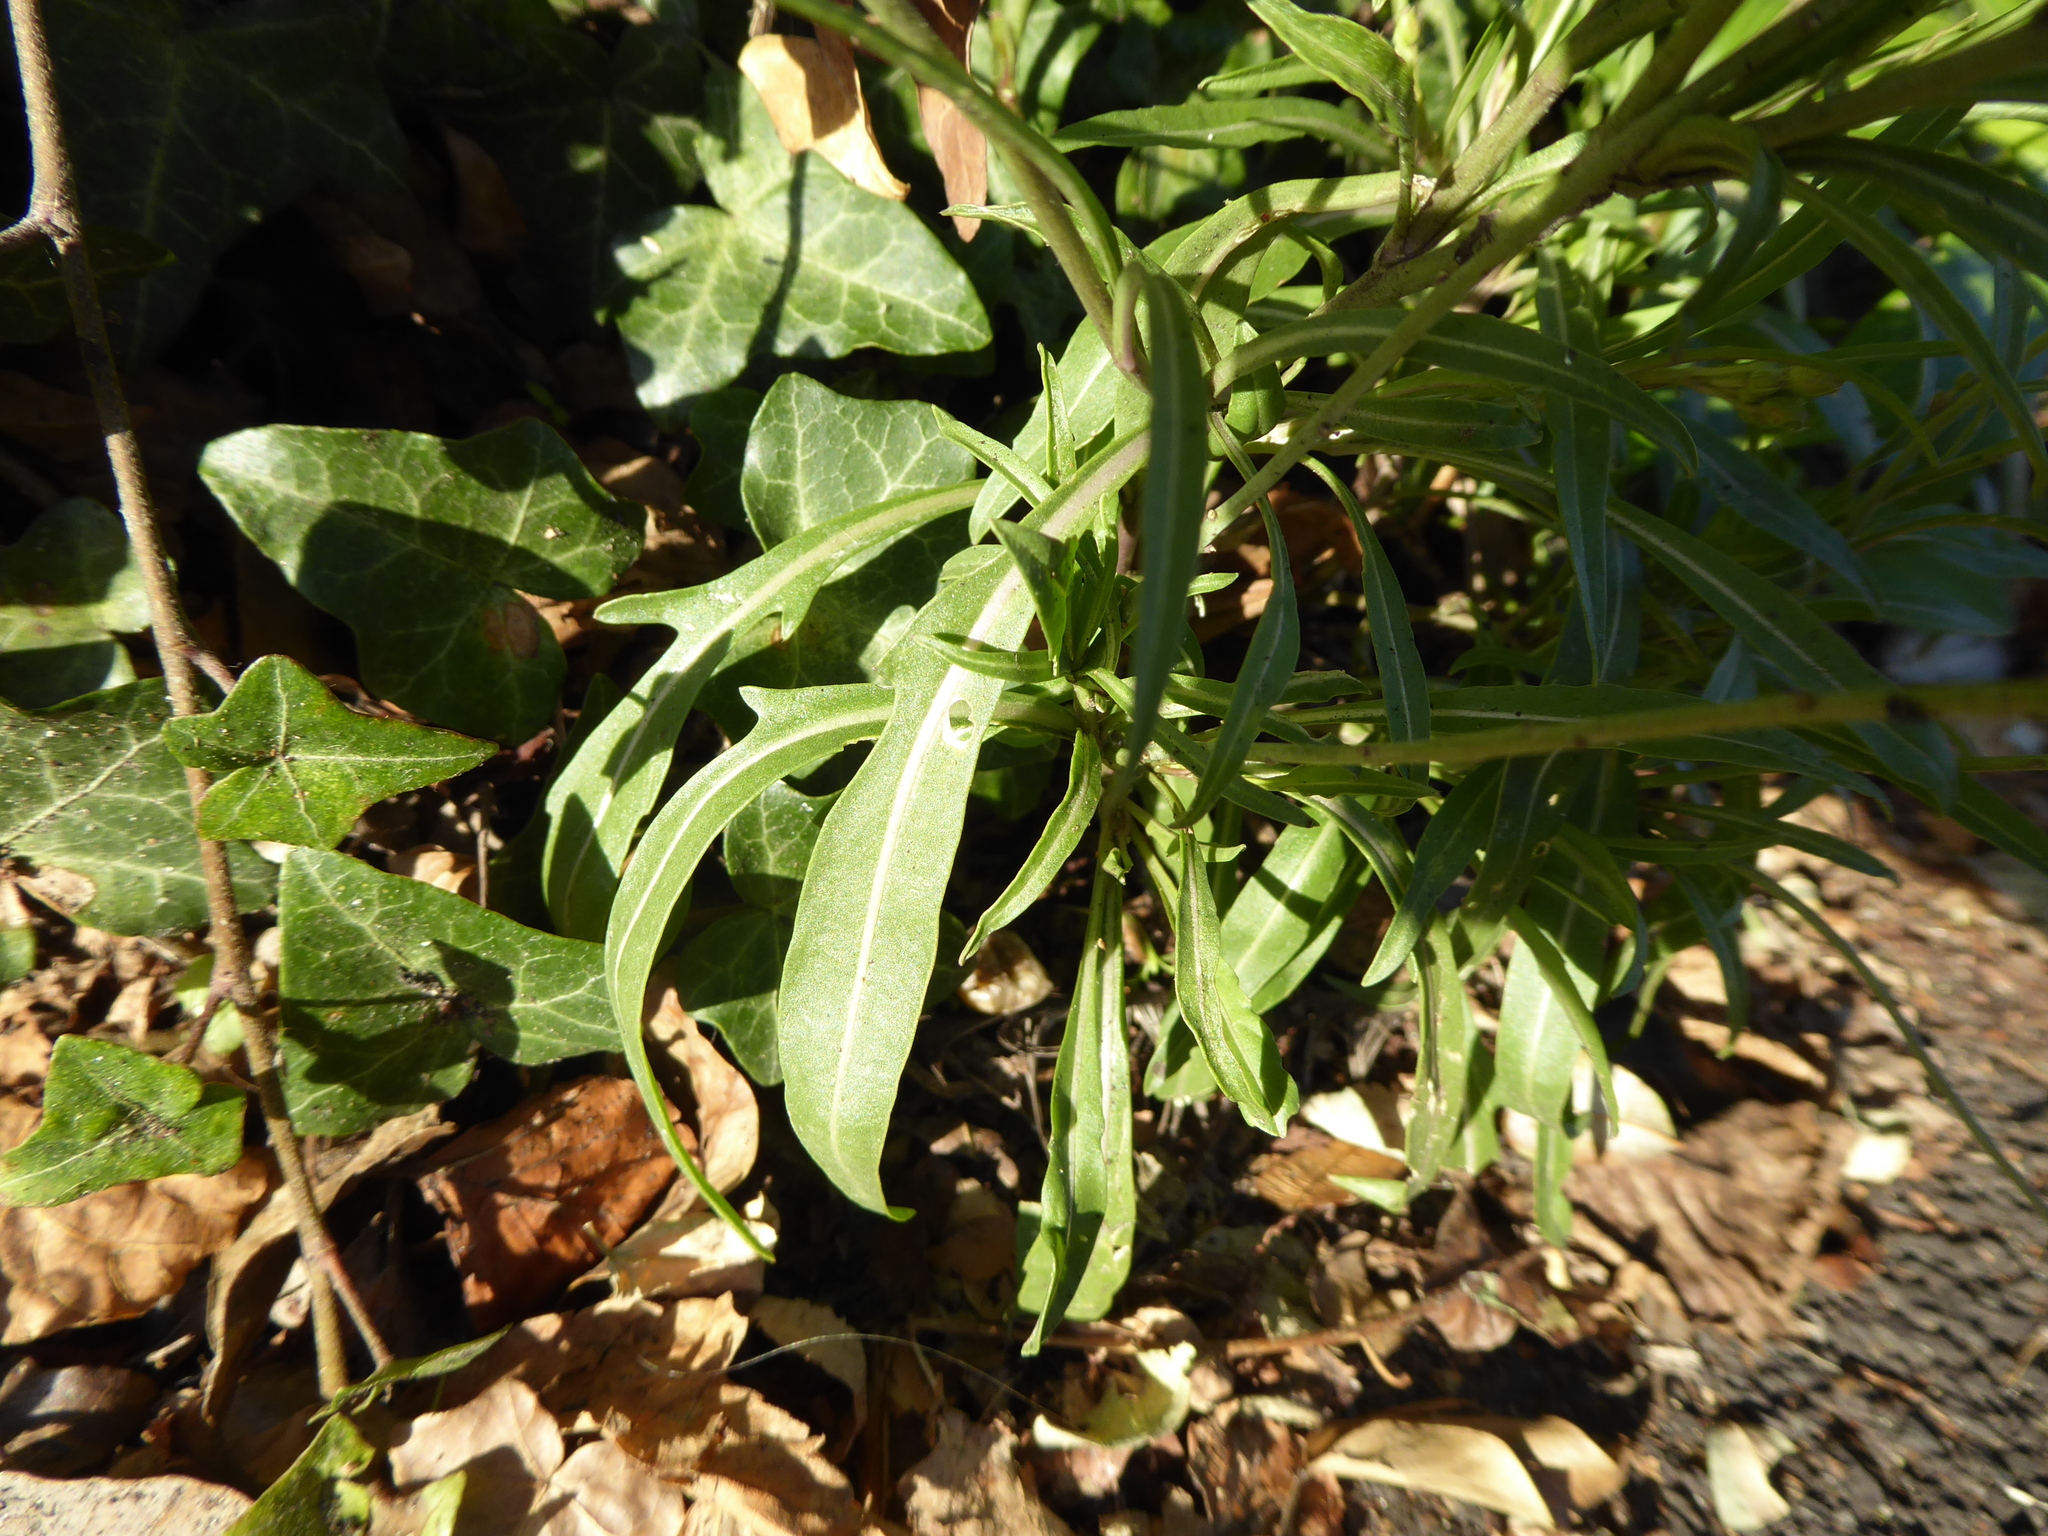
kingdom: Plantae
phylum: Tracheophyta
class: Magnoliopsida
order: Brassicales
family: Brassicaceae
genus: Diplotaxis
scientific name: Diplotaxis tenuifolia
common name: Perennial wall-rocket
